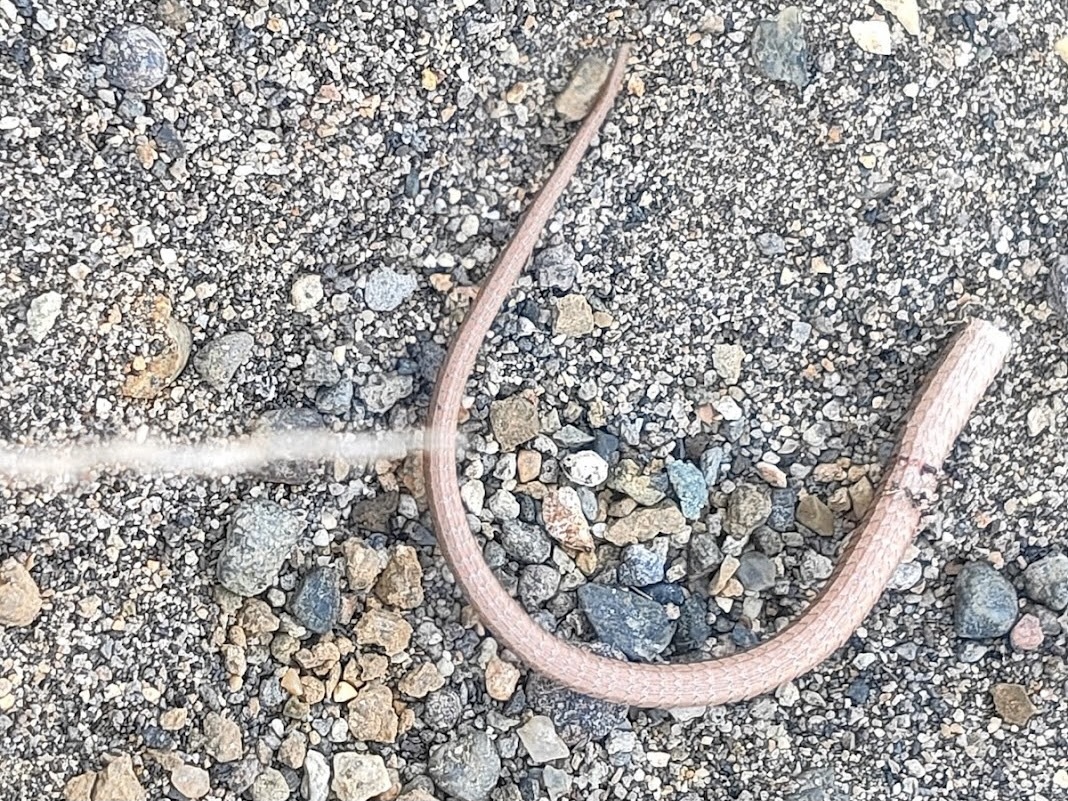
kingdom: Animalia
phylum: Chordata
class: Squamata
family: Lacertidae
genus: Takydromus
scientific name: Takydromus tachydromoides
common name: Japanese grass lizard
